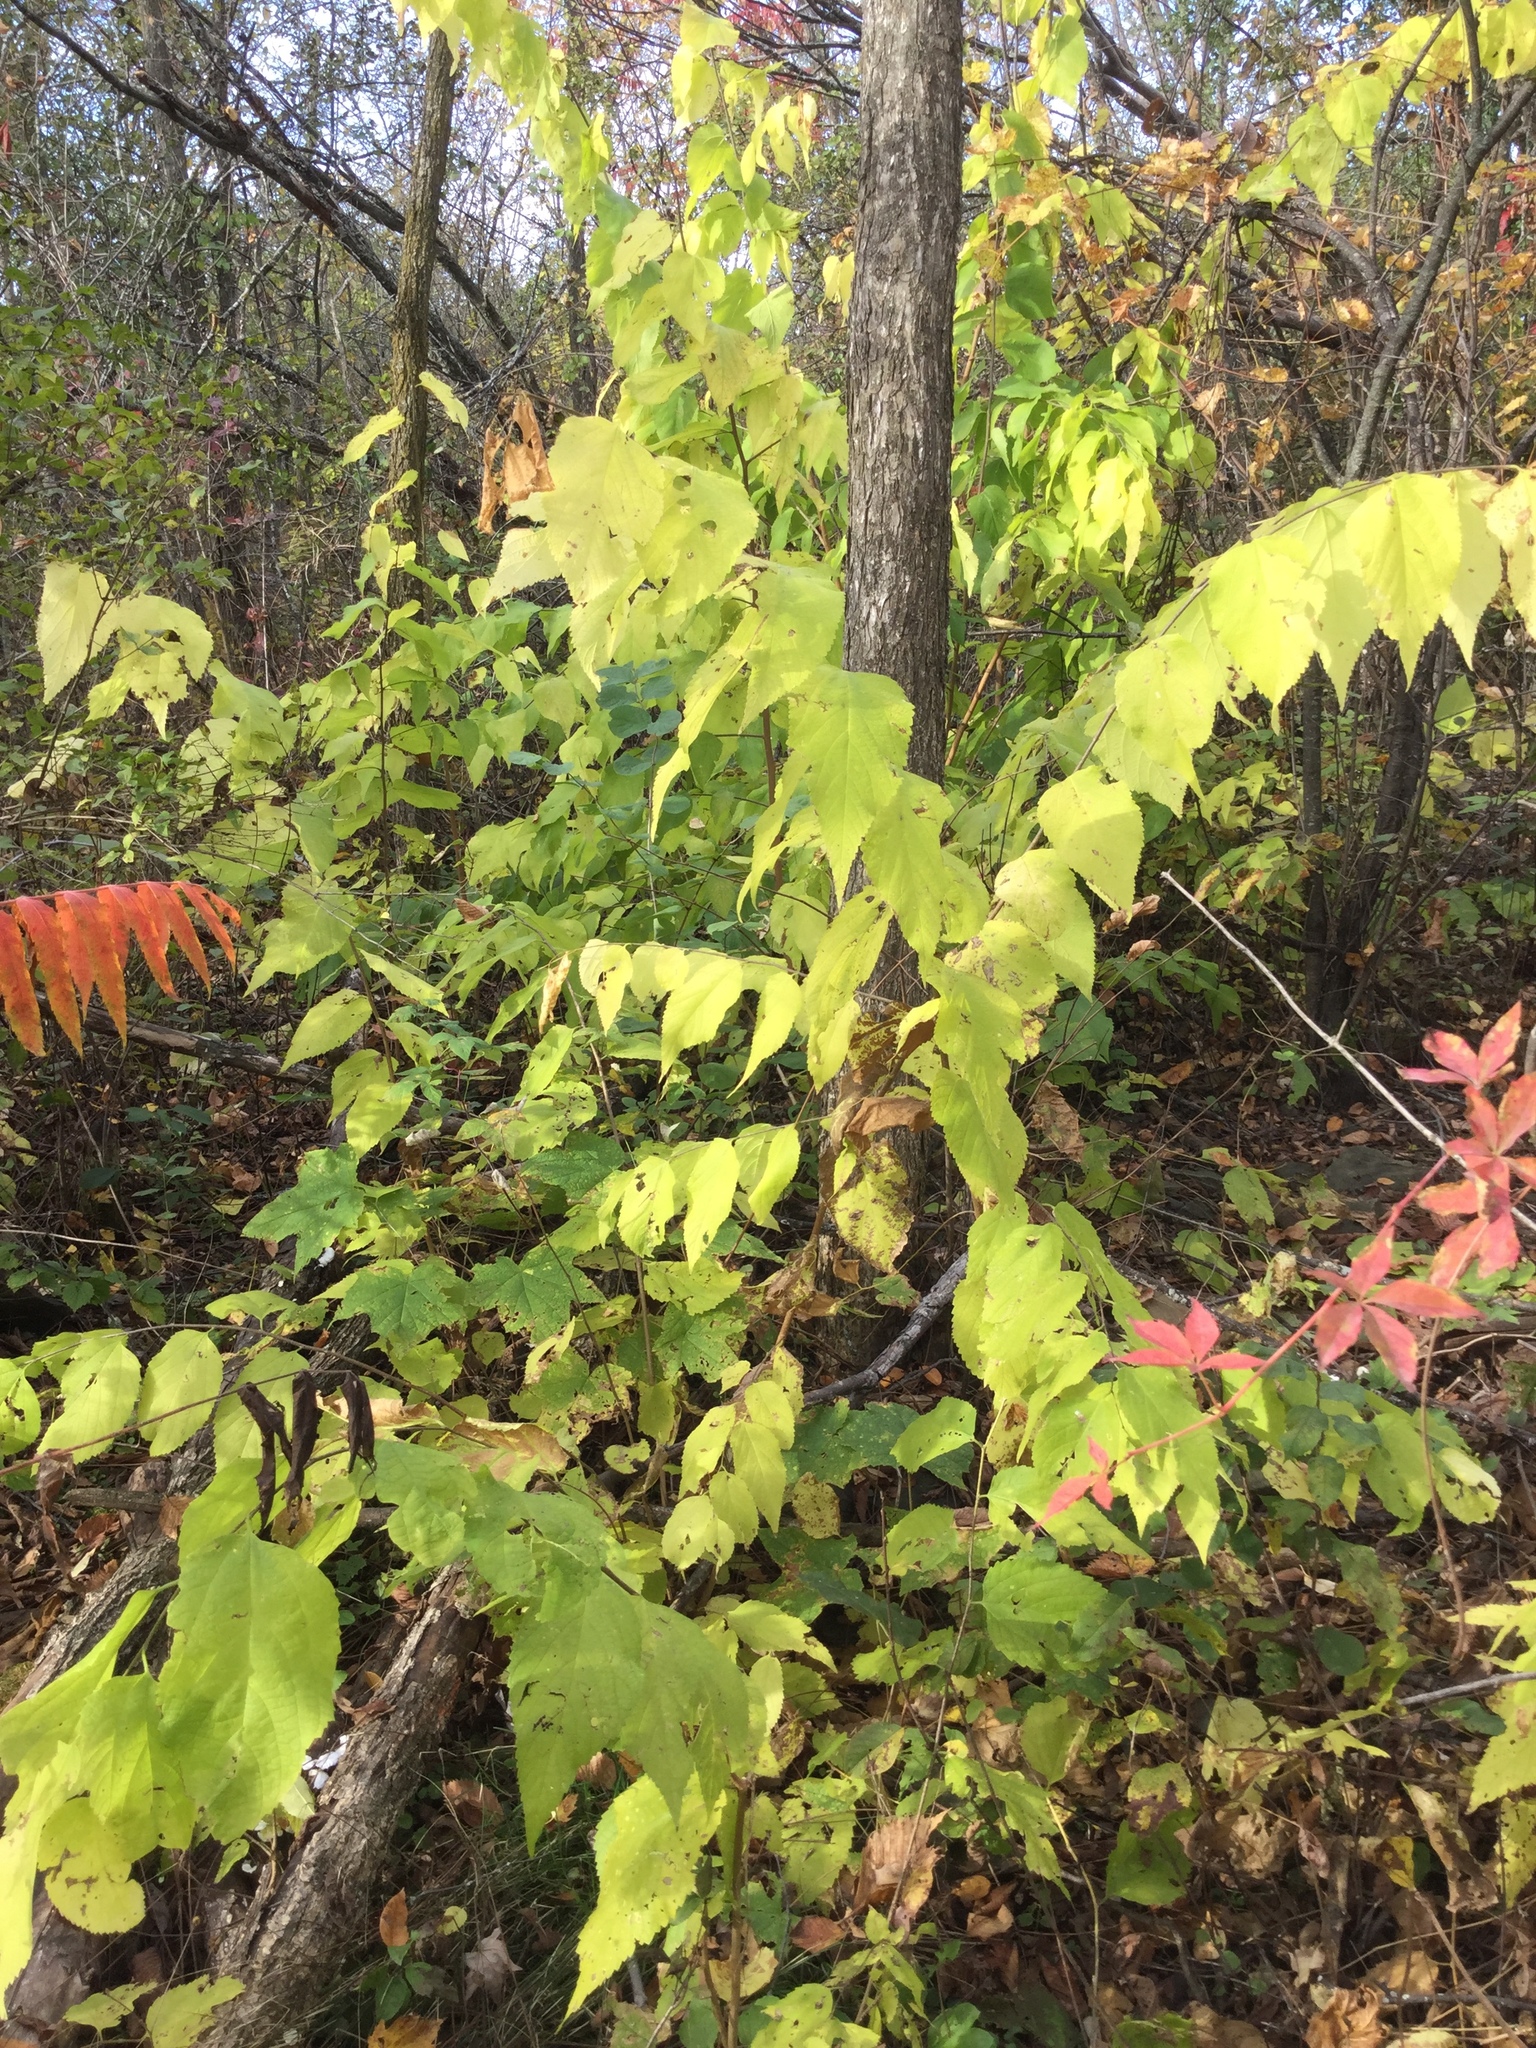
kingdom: Plantae
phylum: Tracheophyta
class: Magnoliopsida
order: Rosales
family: Cannabaceae
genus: Celtis
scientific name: Celtis occidentalis
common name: Common hackberry
